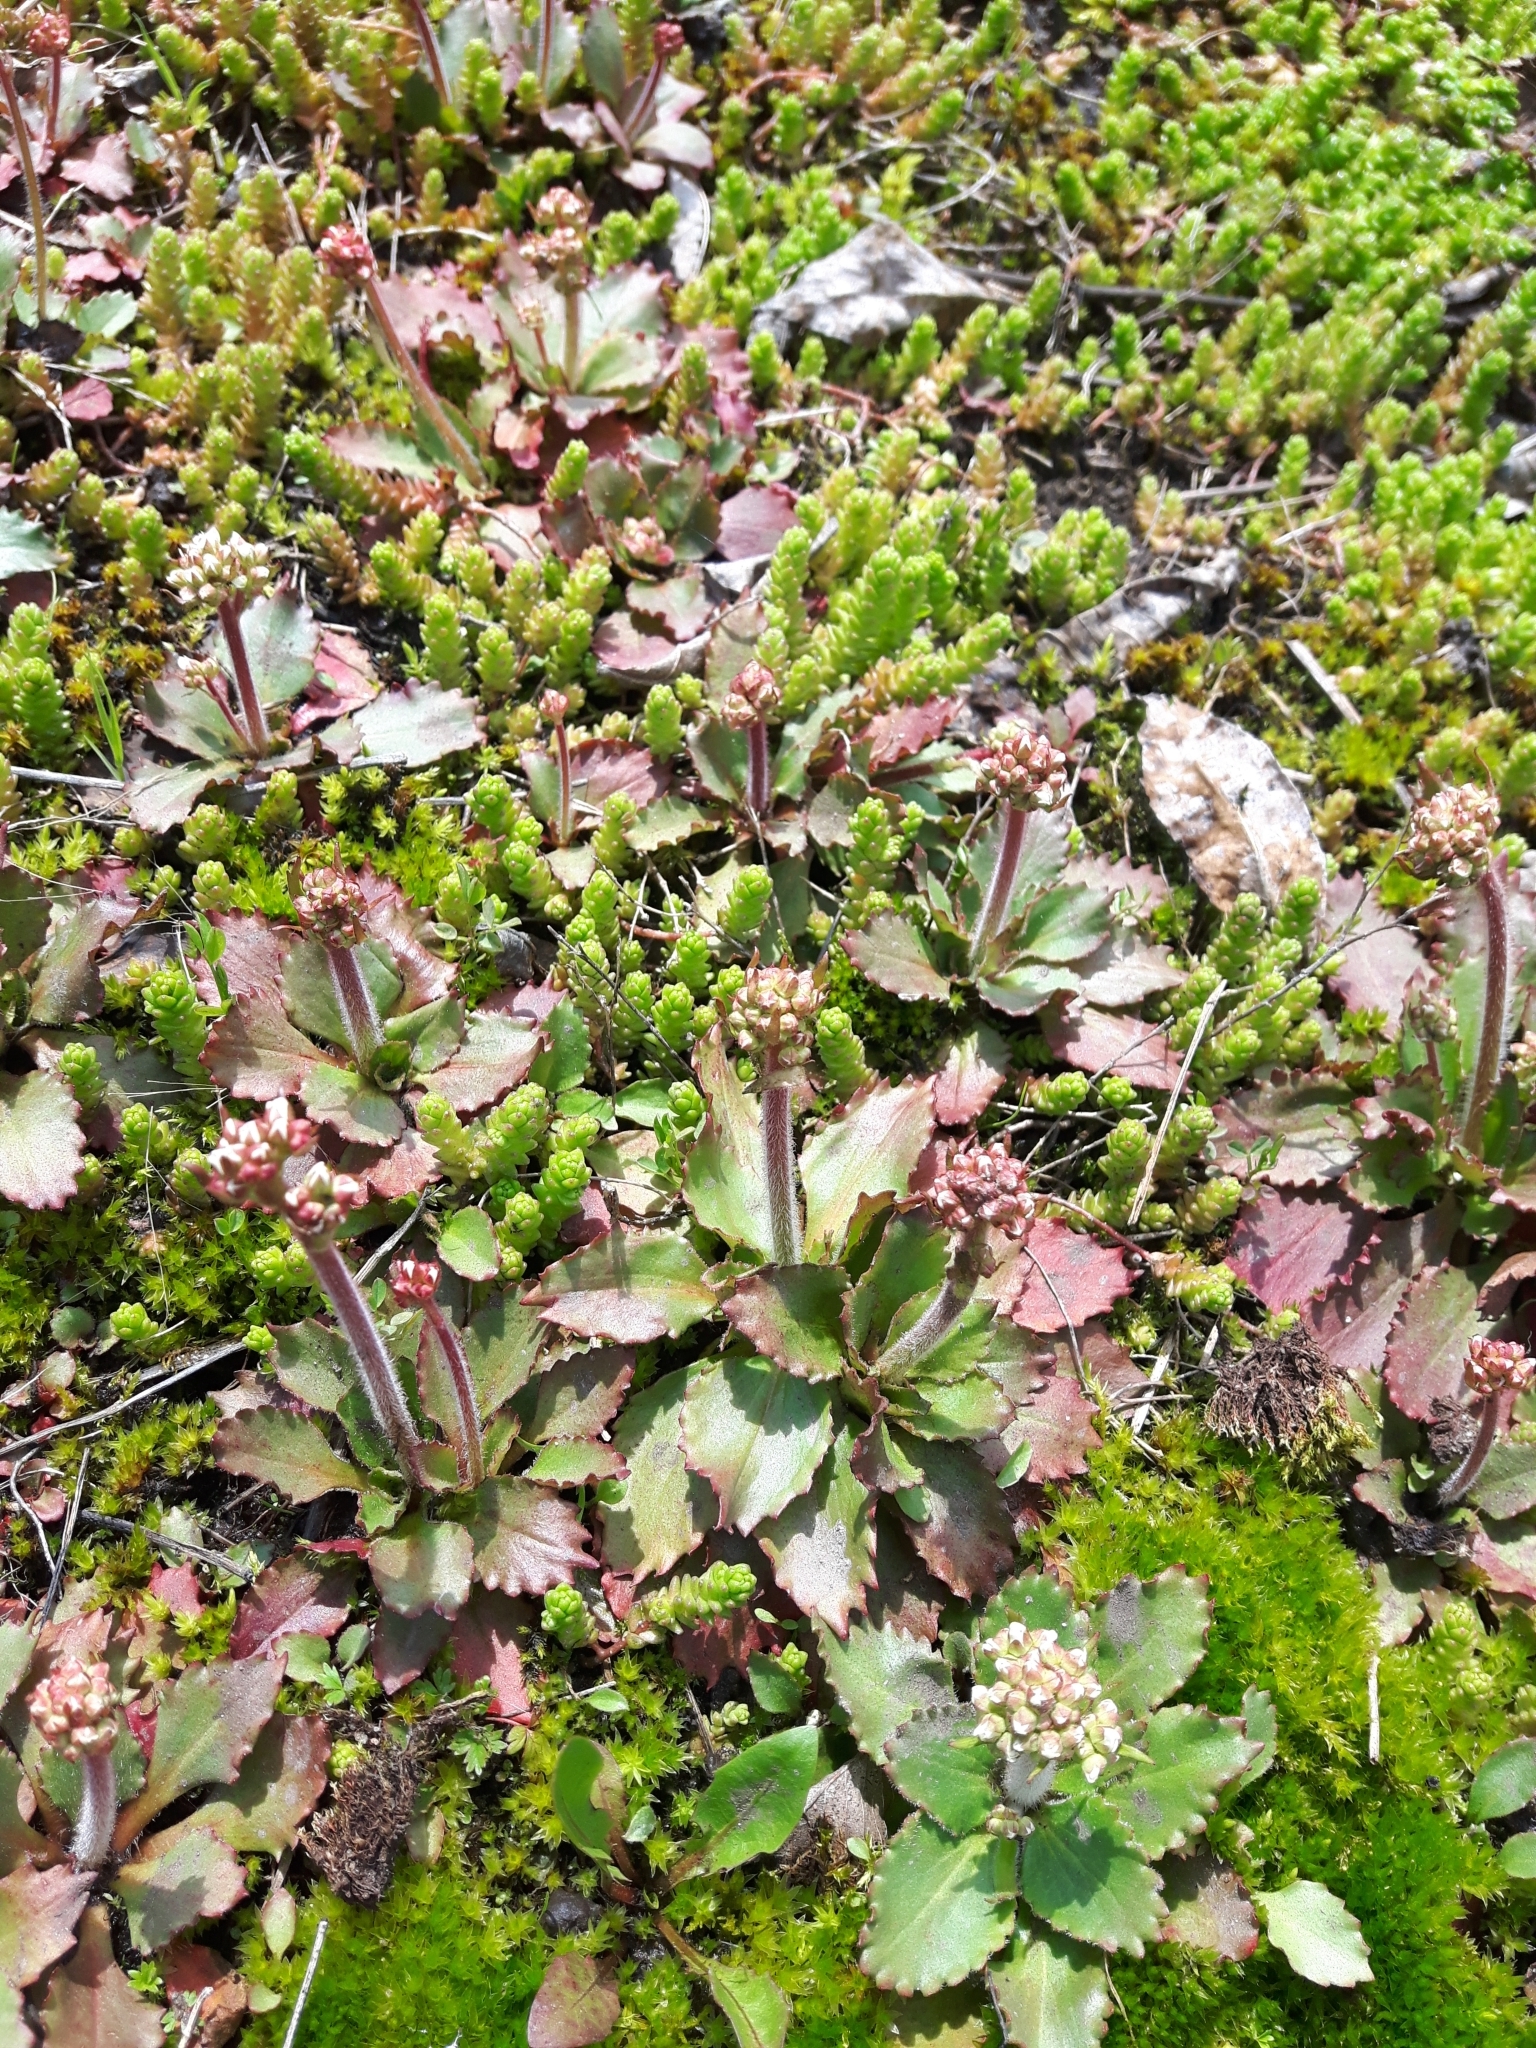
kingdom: Plantae
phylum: Tracheophyta
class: Magnoliopsida
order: Saxifragales
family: Saxifragaceae
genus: Micranthes
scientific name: Micranthes virginiensis
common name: Early saxifrage
